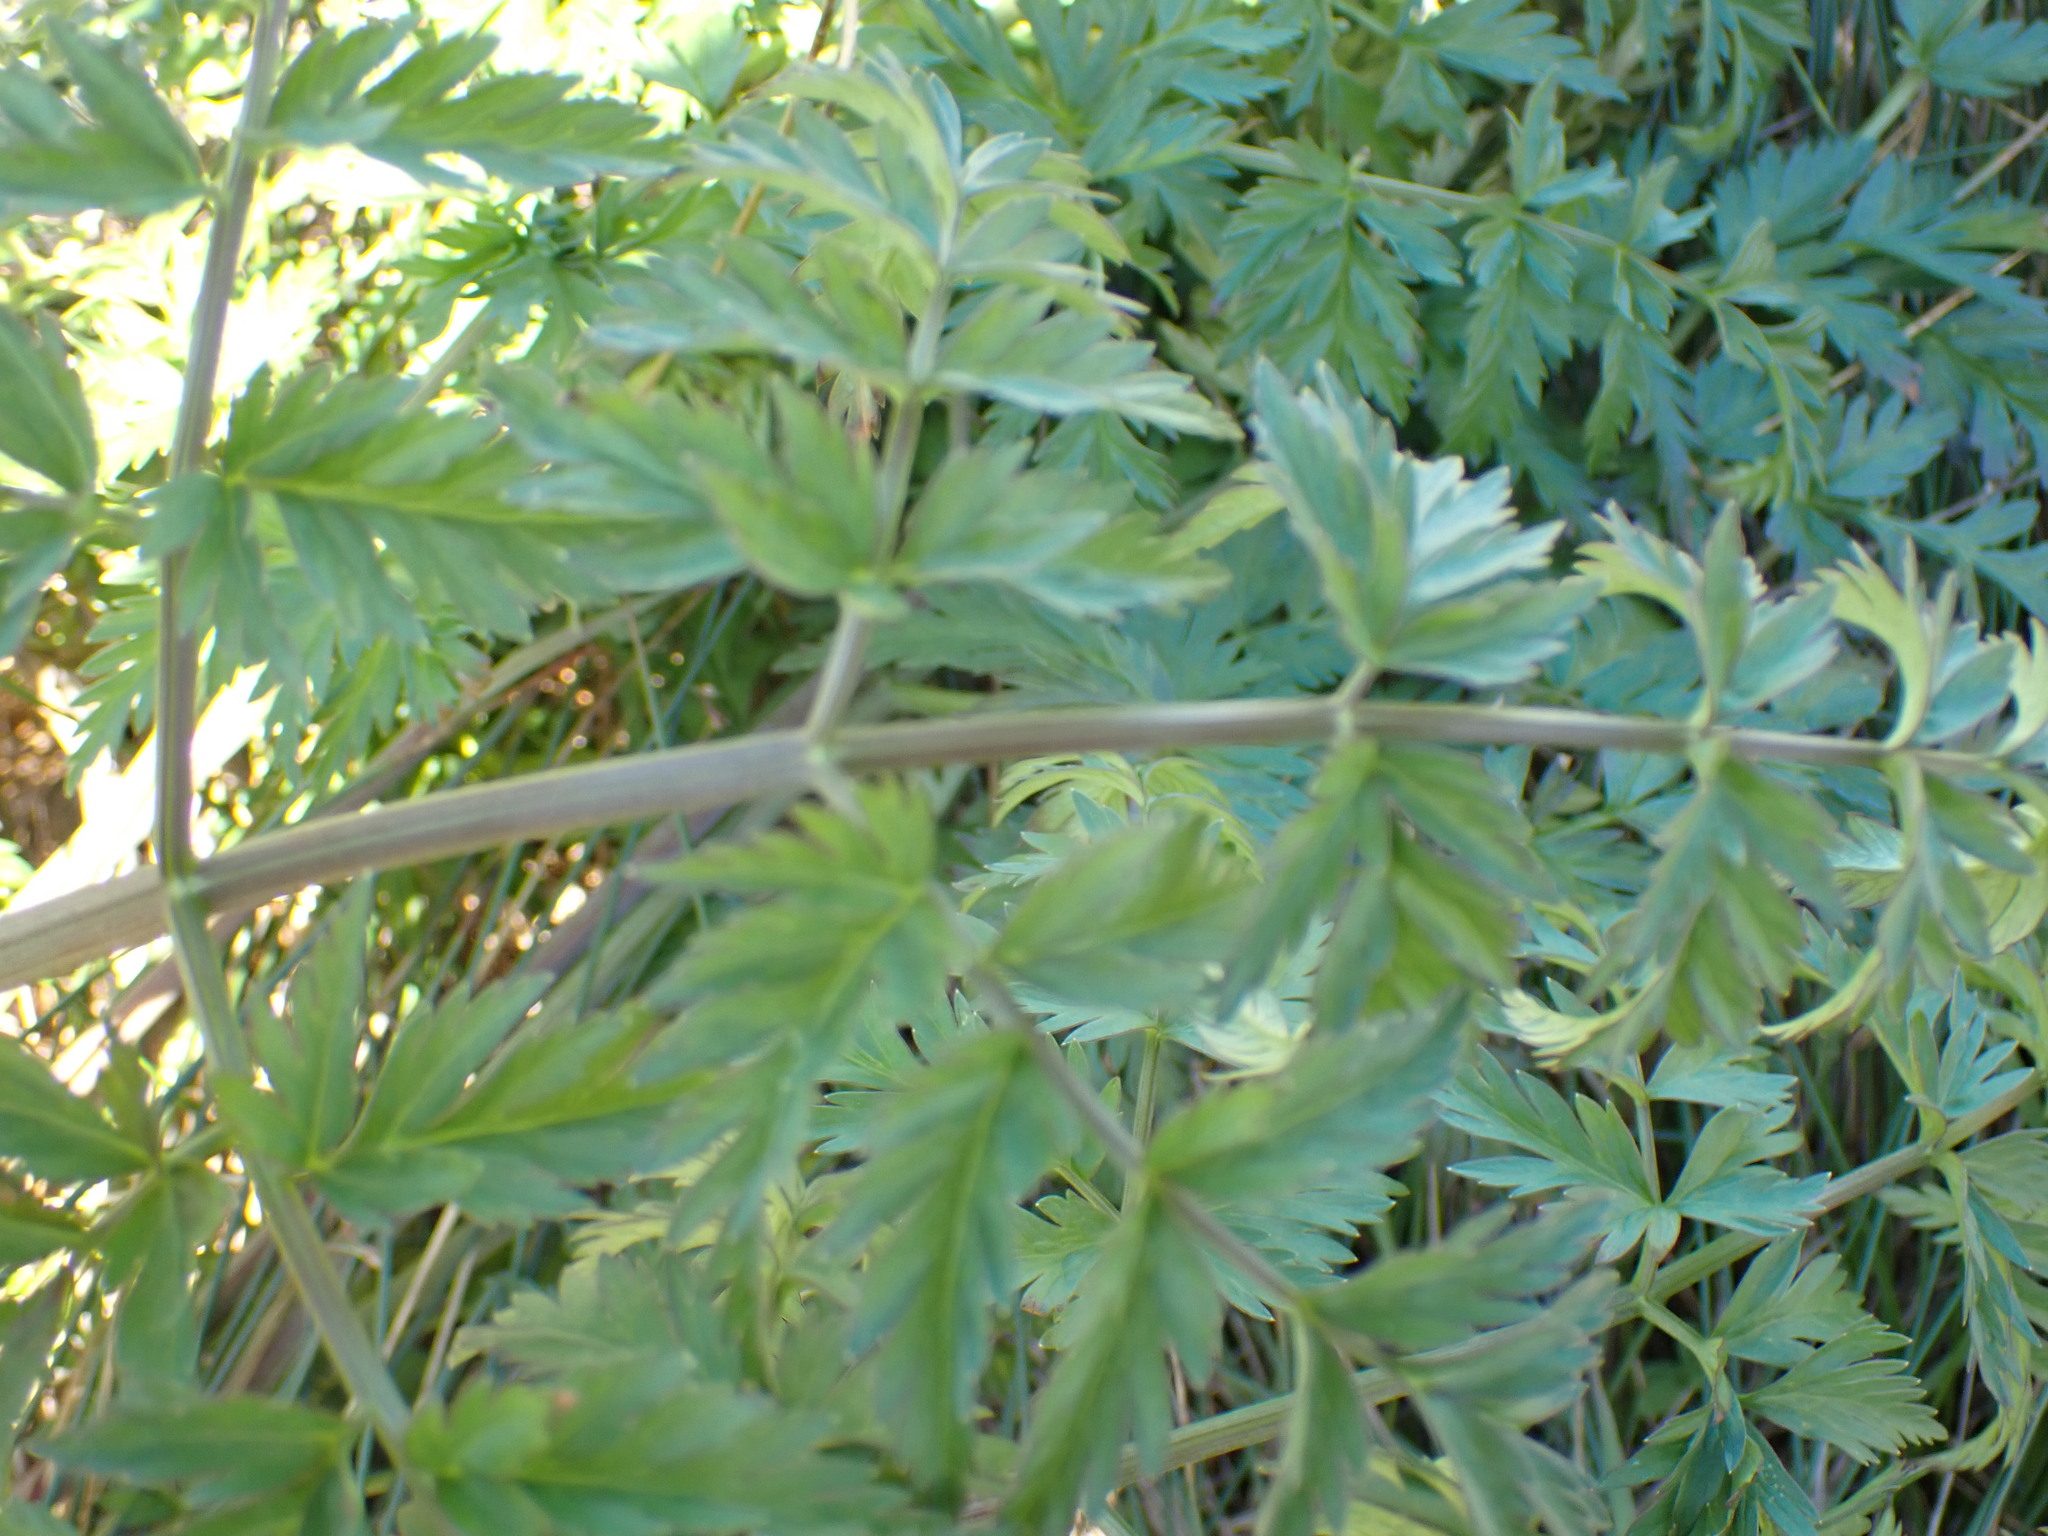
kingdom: Plantae
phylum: Tracheophyta
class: Magnoliopsida
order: Apiales
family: Apiaceae
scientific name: Apiaceae
